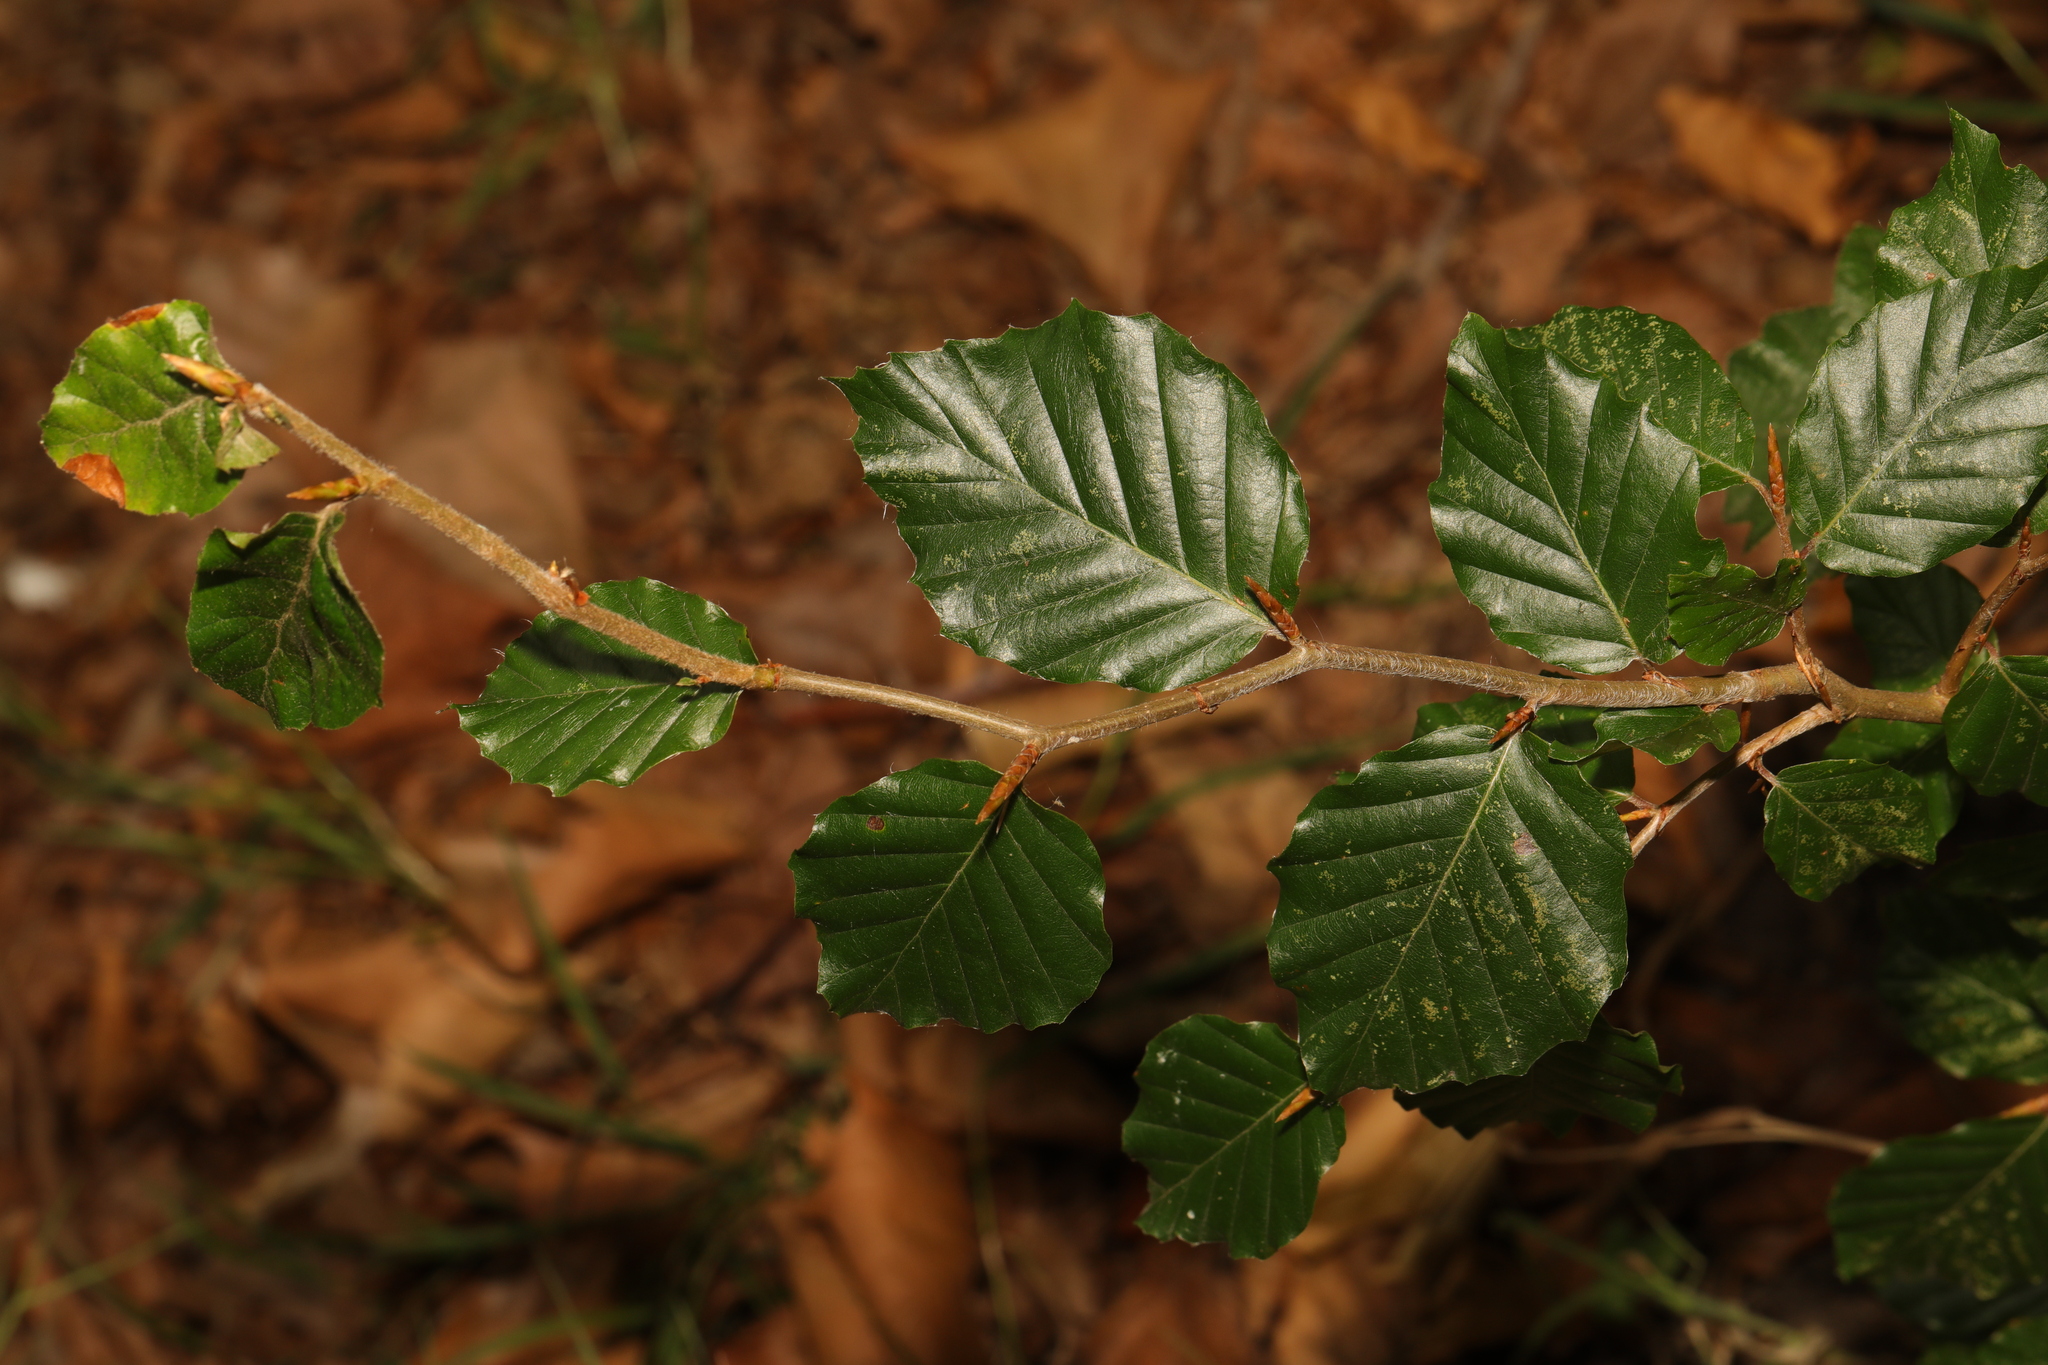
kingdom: Plantae
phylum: Tracheophyta
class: Magnoliopsida
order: Fagales
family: Fagaceae
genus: Fagus
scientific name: Fagus sylvatica
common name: Beech
